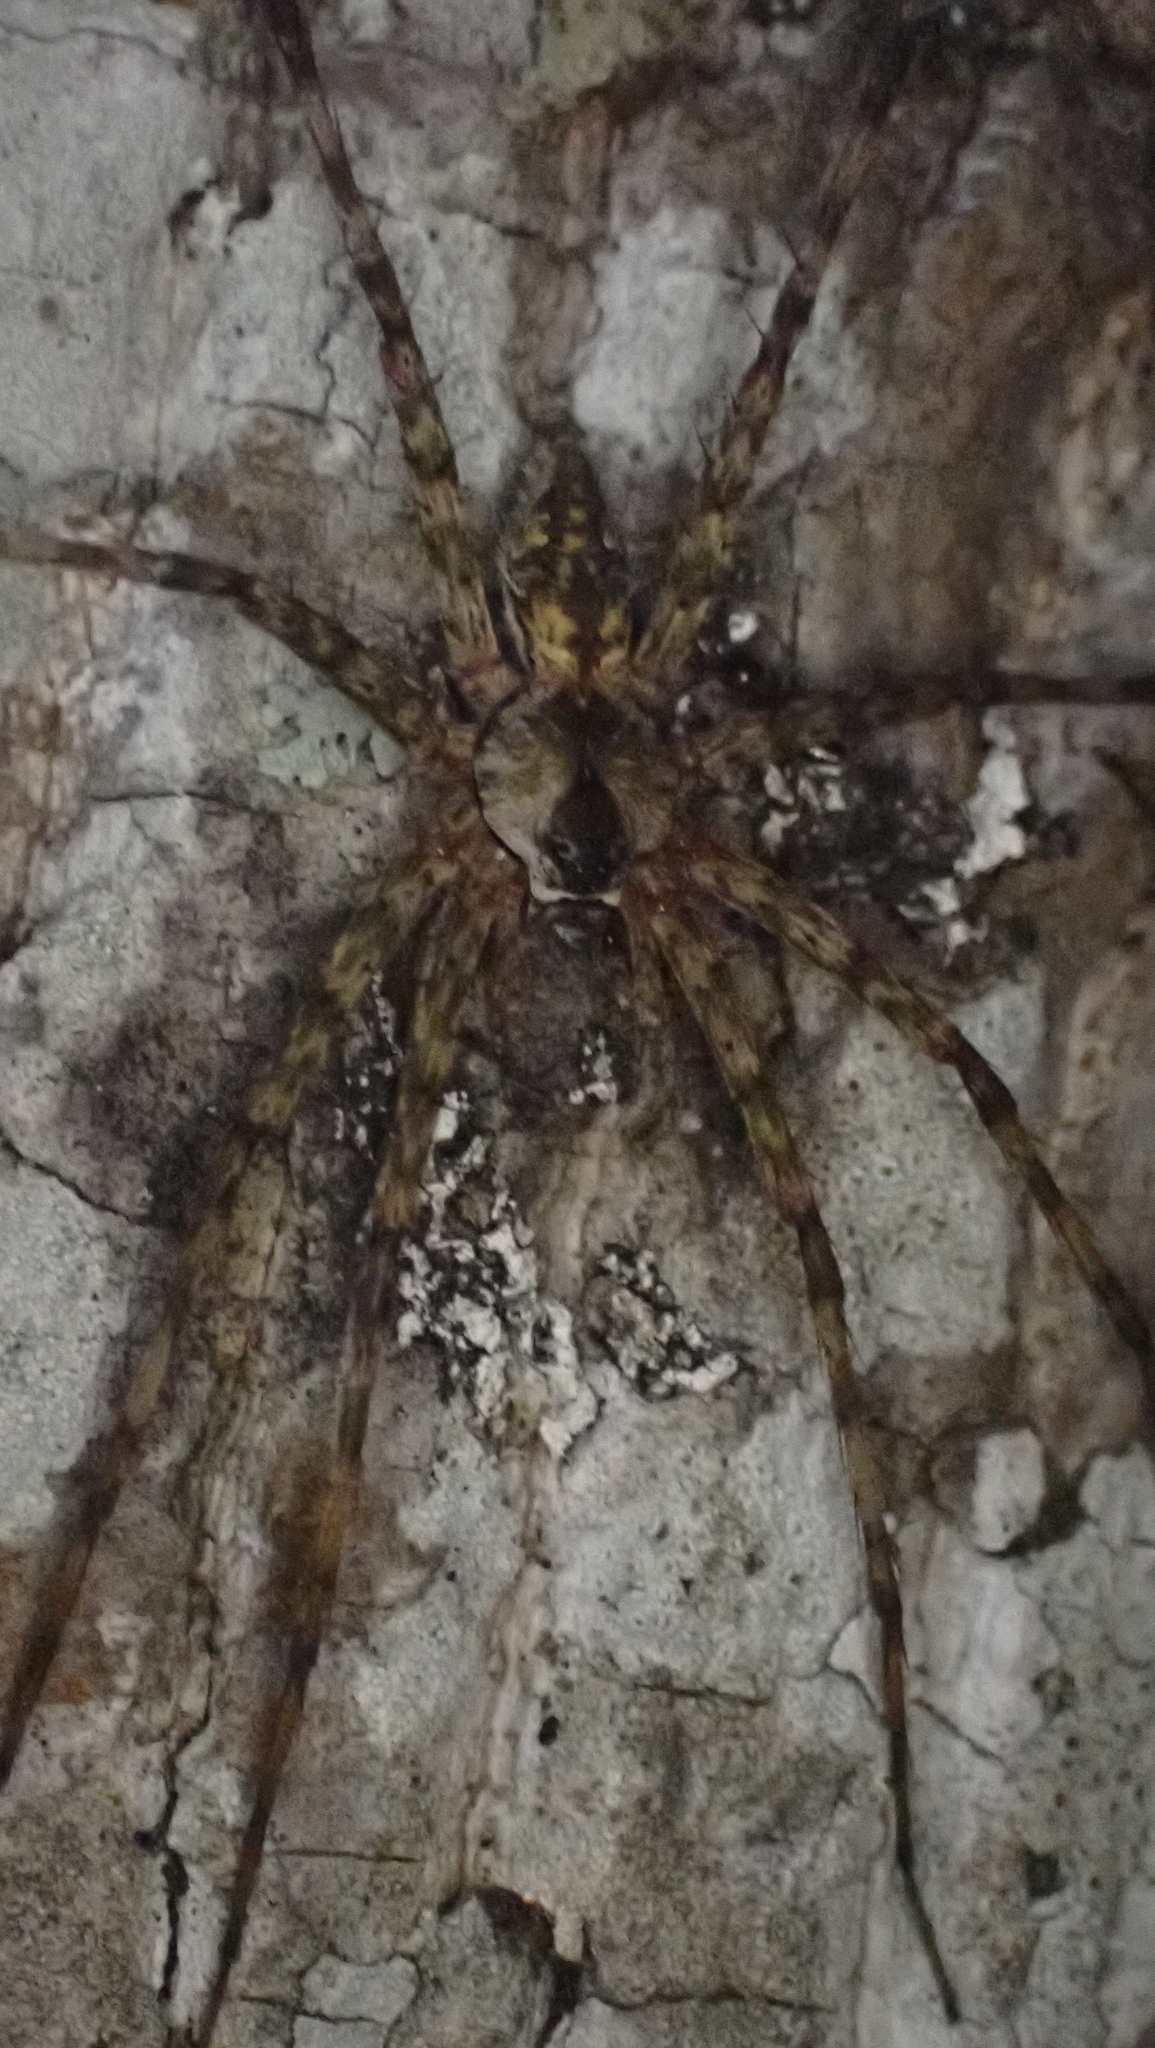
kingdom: Animalia
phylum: Arthropoda
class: Arachnida
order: Araneae
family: Pisauridae
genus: Dolomedes
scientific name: Dolomedes albineus
